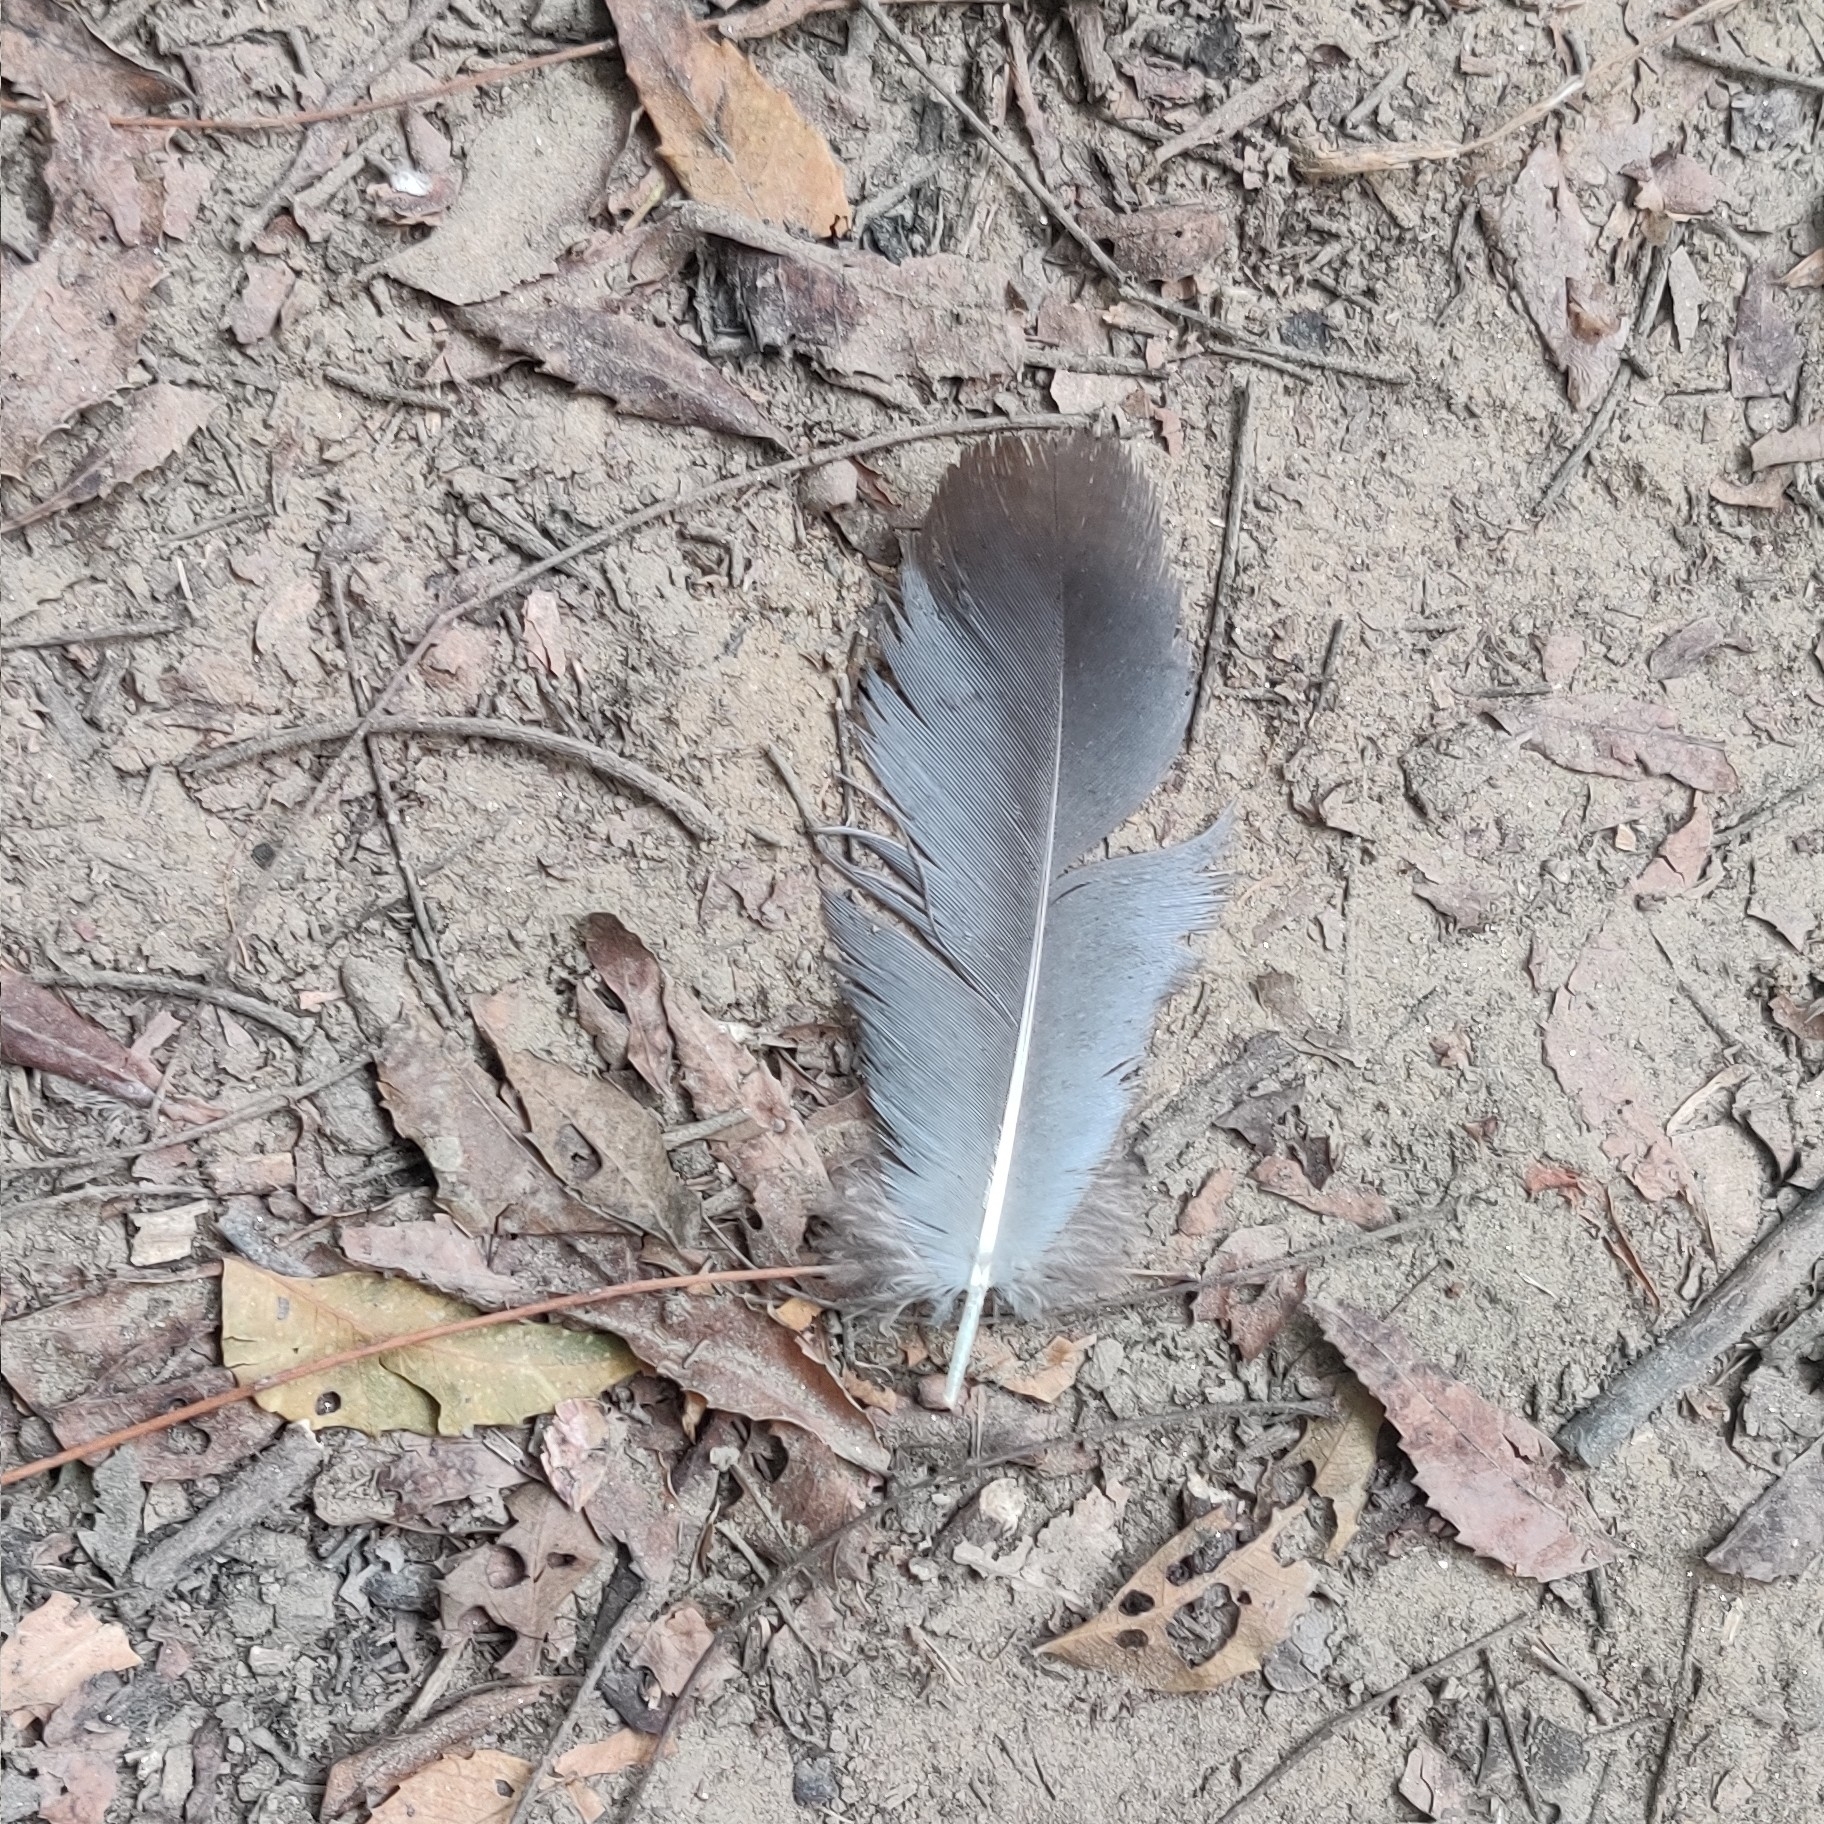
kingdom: Animalia
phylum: Chordata
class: Aves
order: Galliformes
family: Phasianidae
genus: Pavo
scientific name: Pavo cristatus
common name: Indian peafowl
